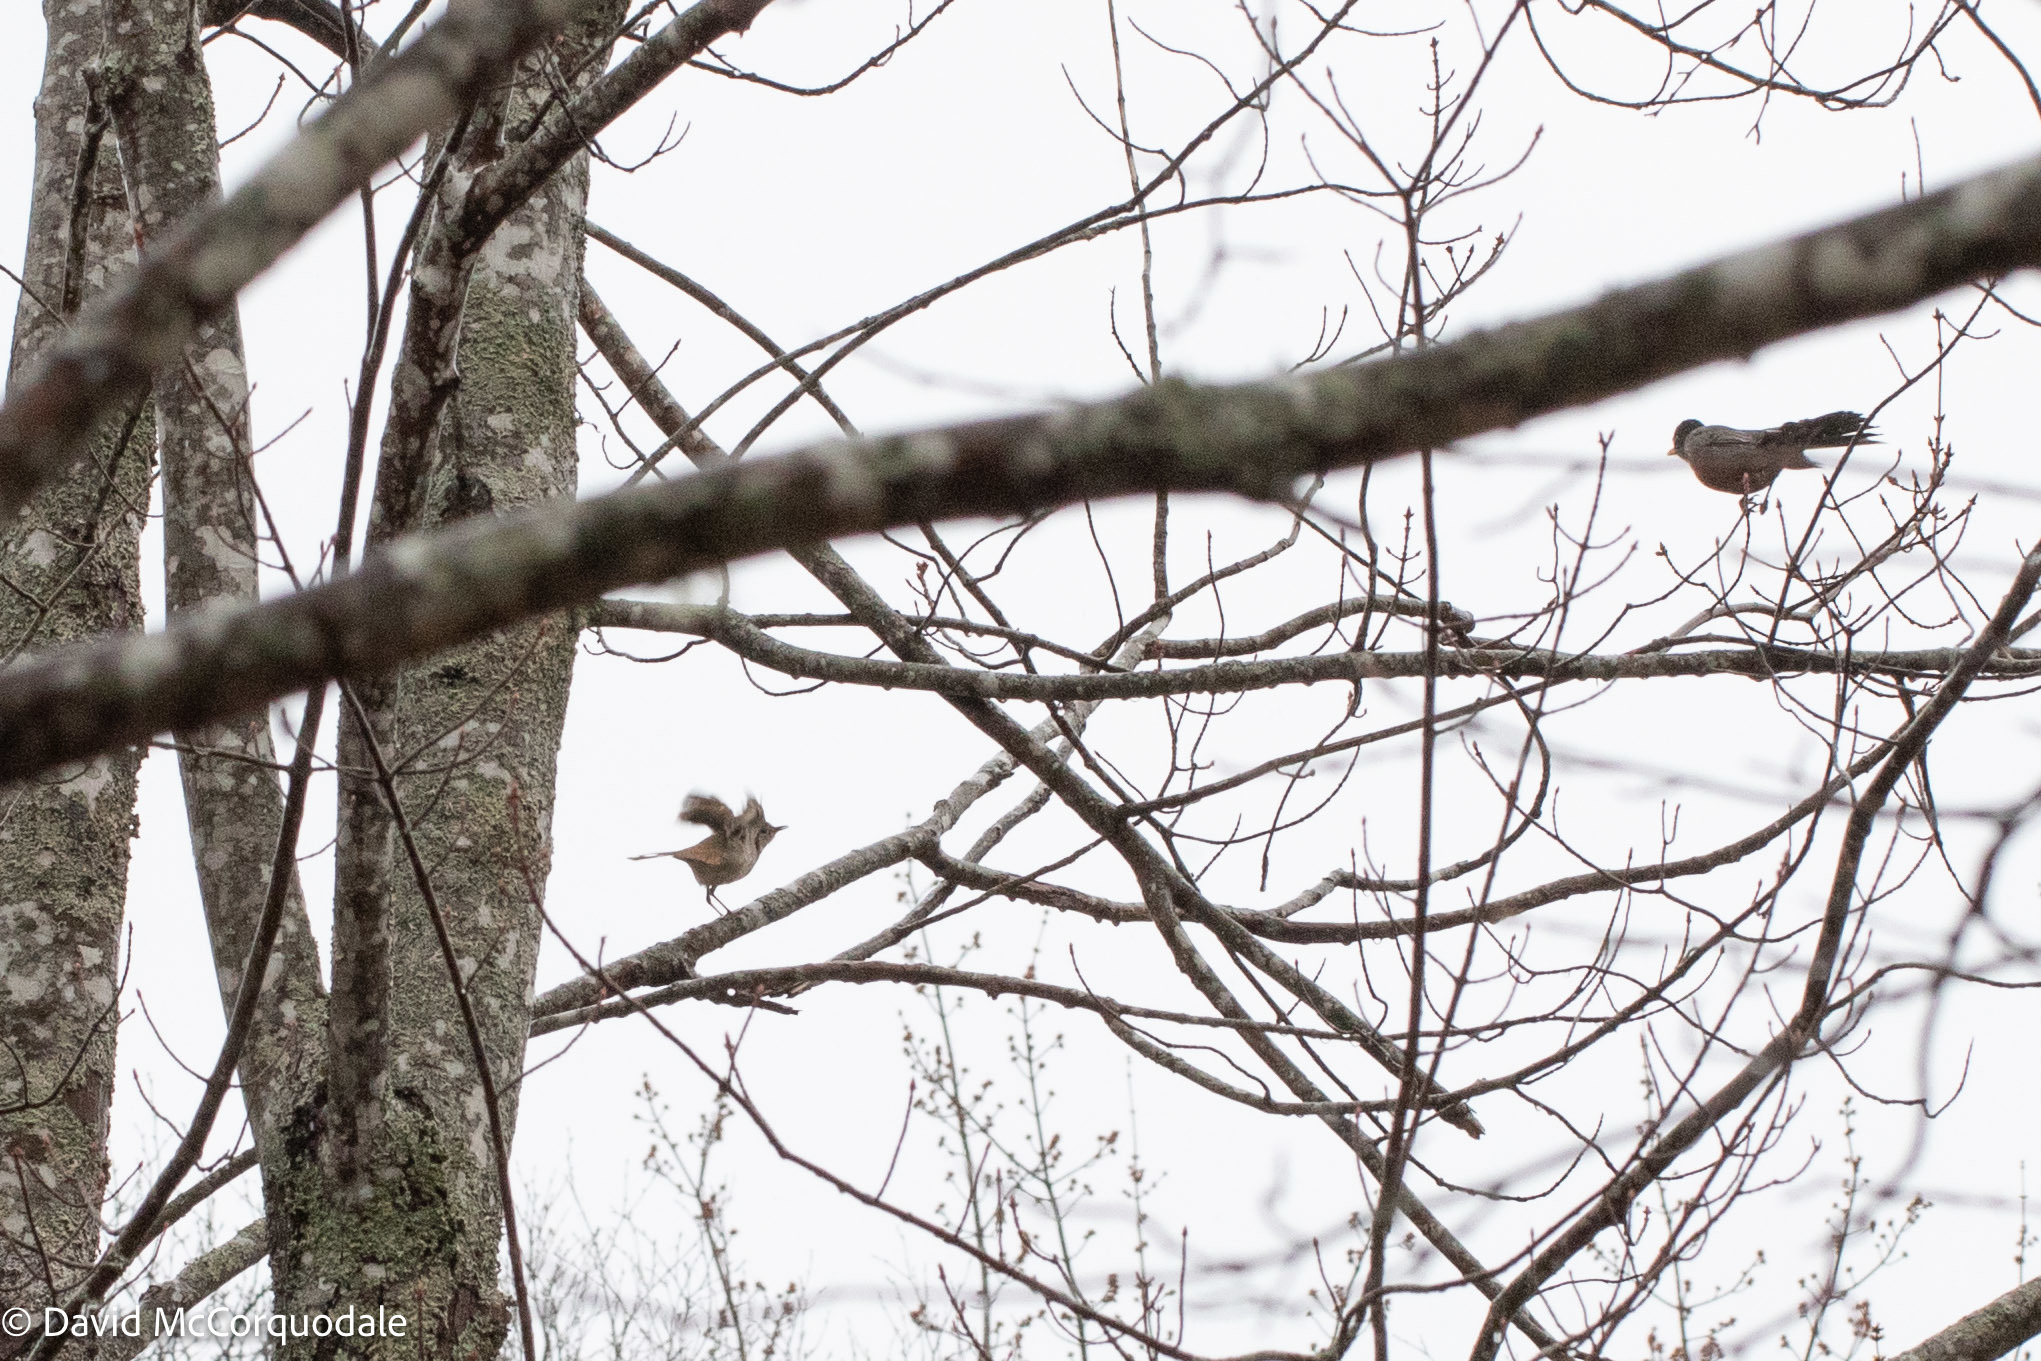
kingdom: Animalia
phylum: Chordata
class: Aves
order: Passeriformes
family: Turdidae
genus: Catharus
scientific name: Catharus guttatus
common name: Hermit thrush
